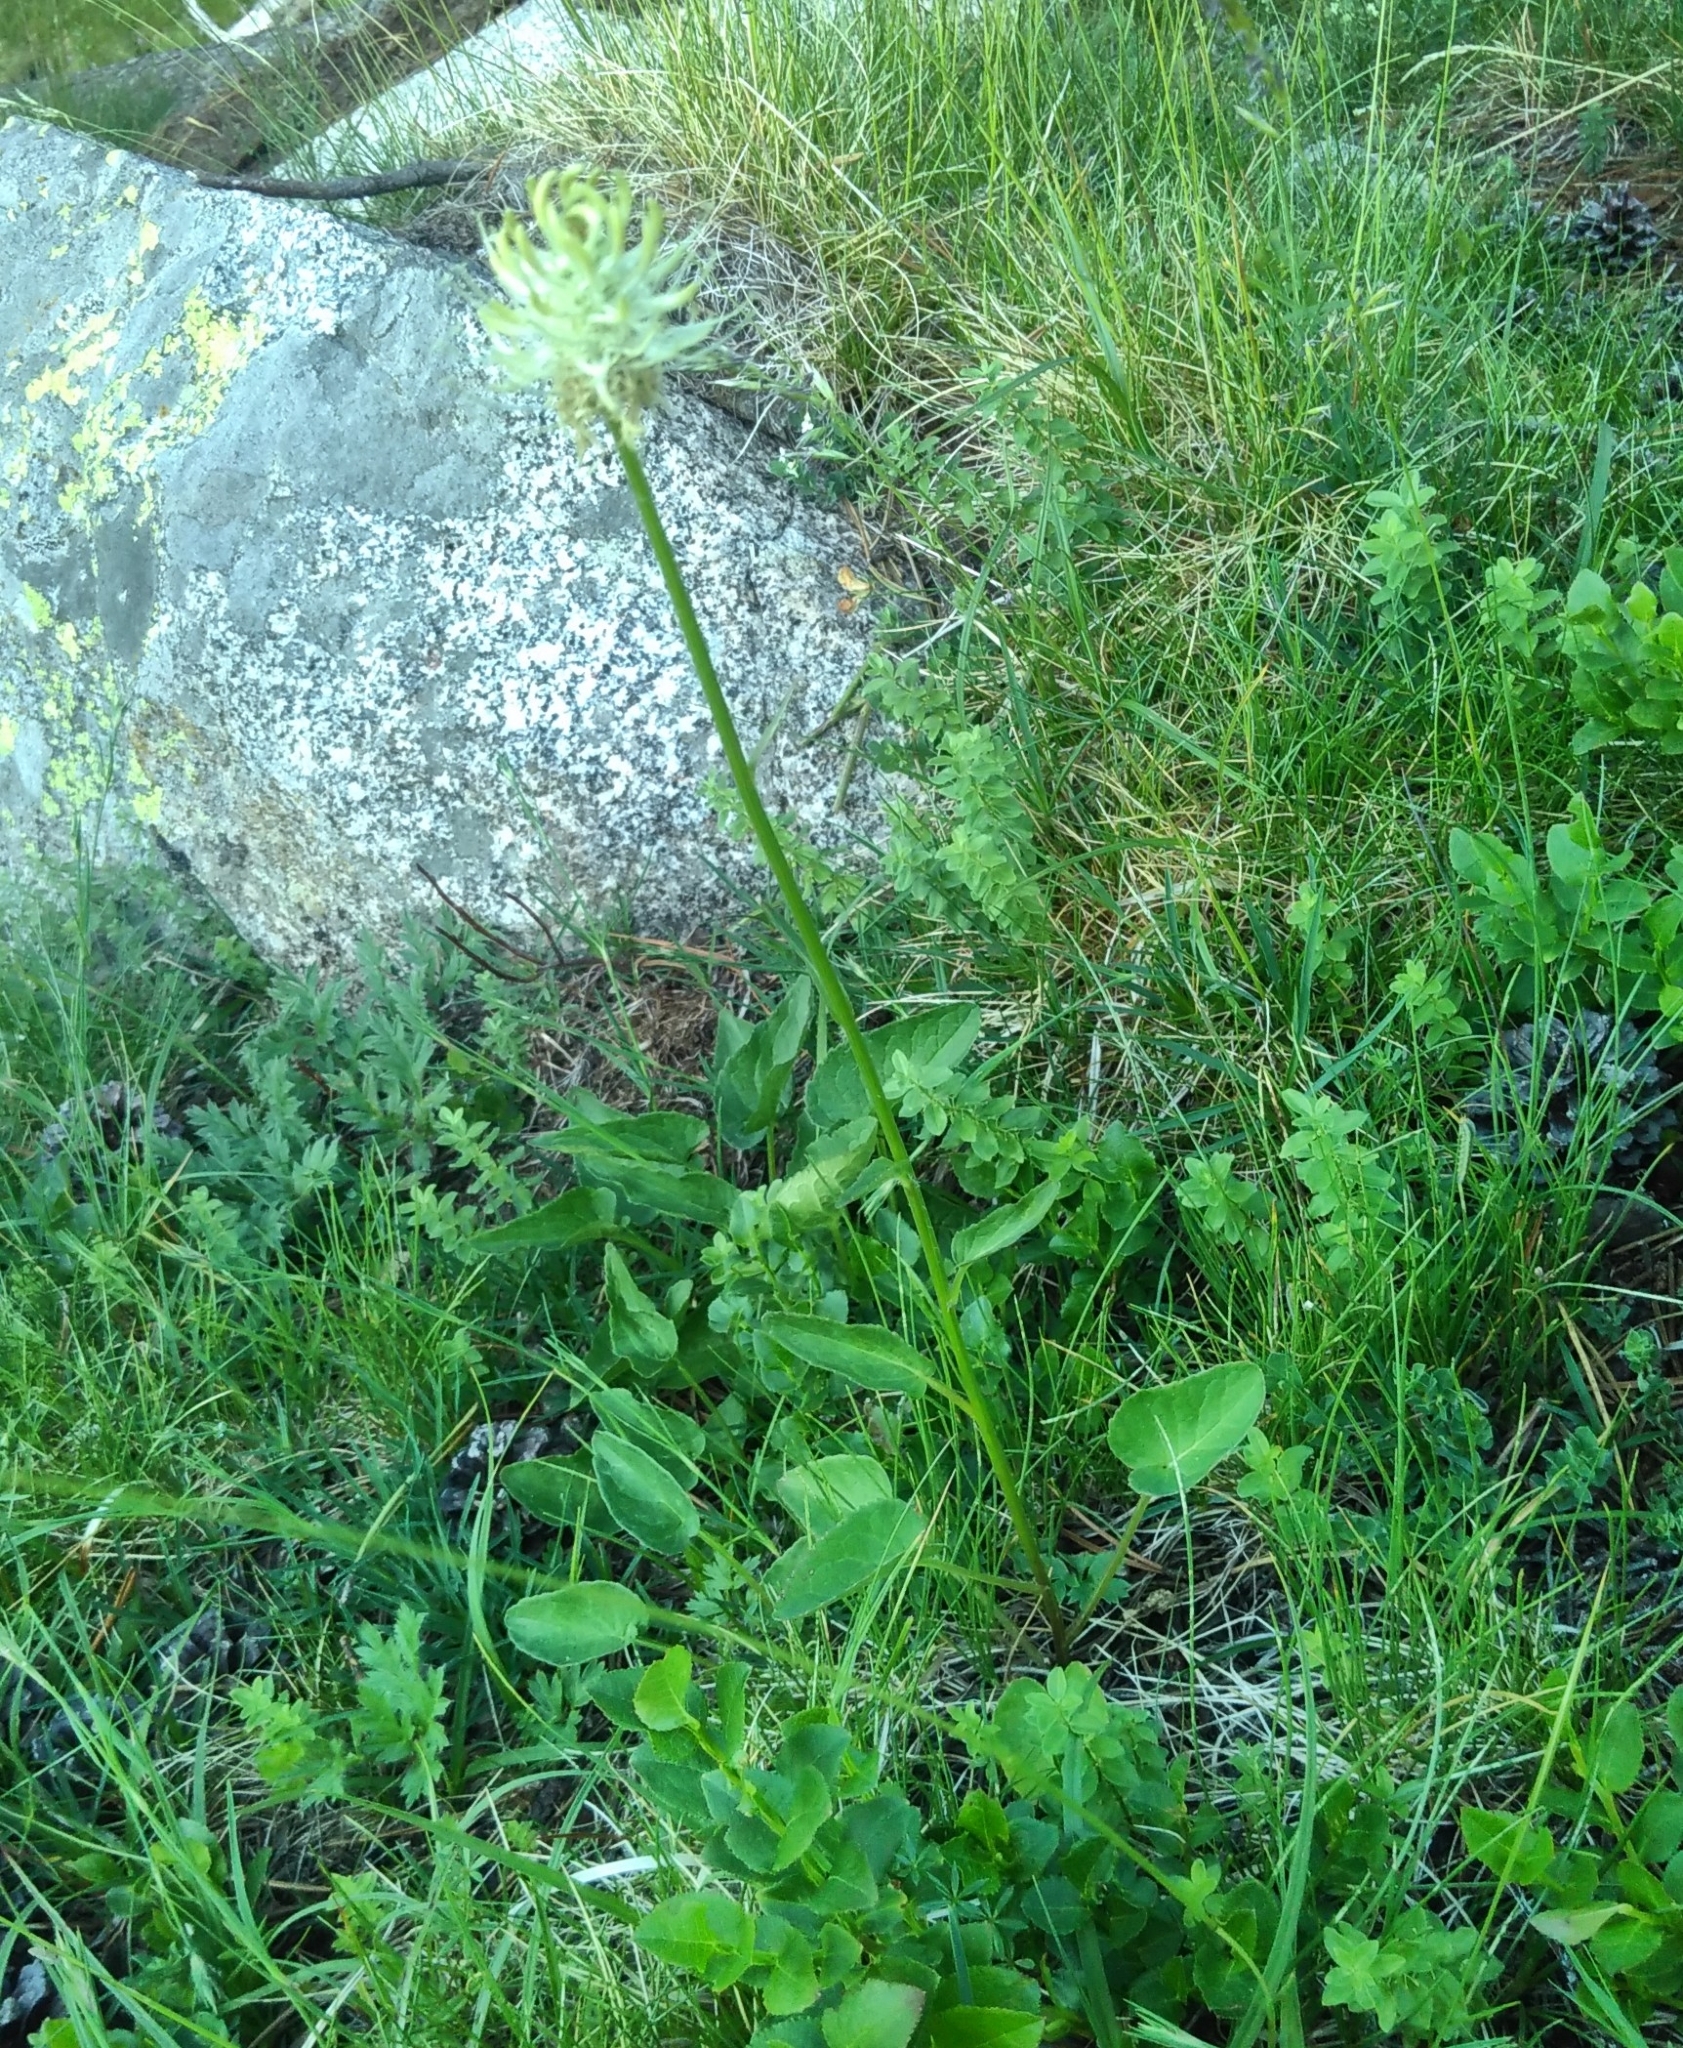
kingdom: Plantae
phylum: Tracheophyta
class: Magnoliopsida
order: Asterales
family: Campanulaceae
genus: Phyteuma
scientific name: Phyteuma spicatum
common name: Spiked rampion
